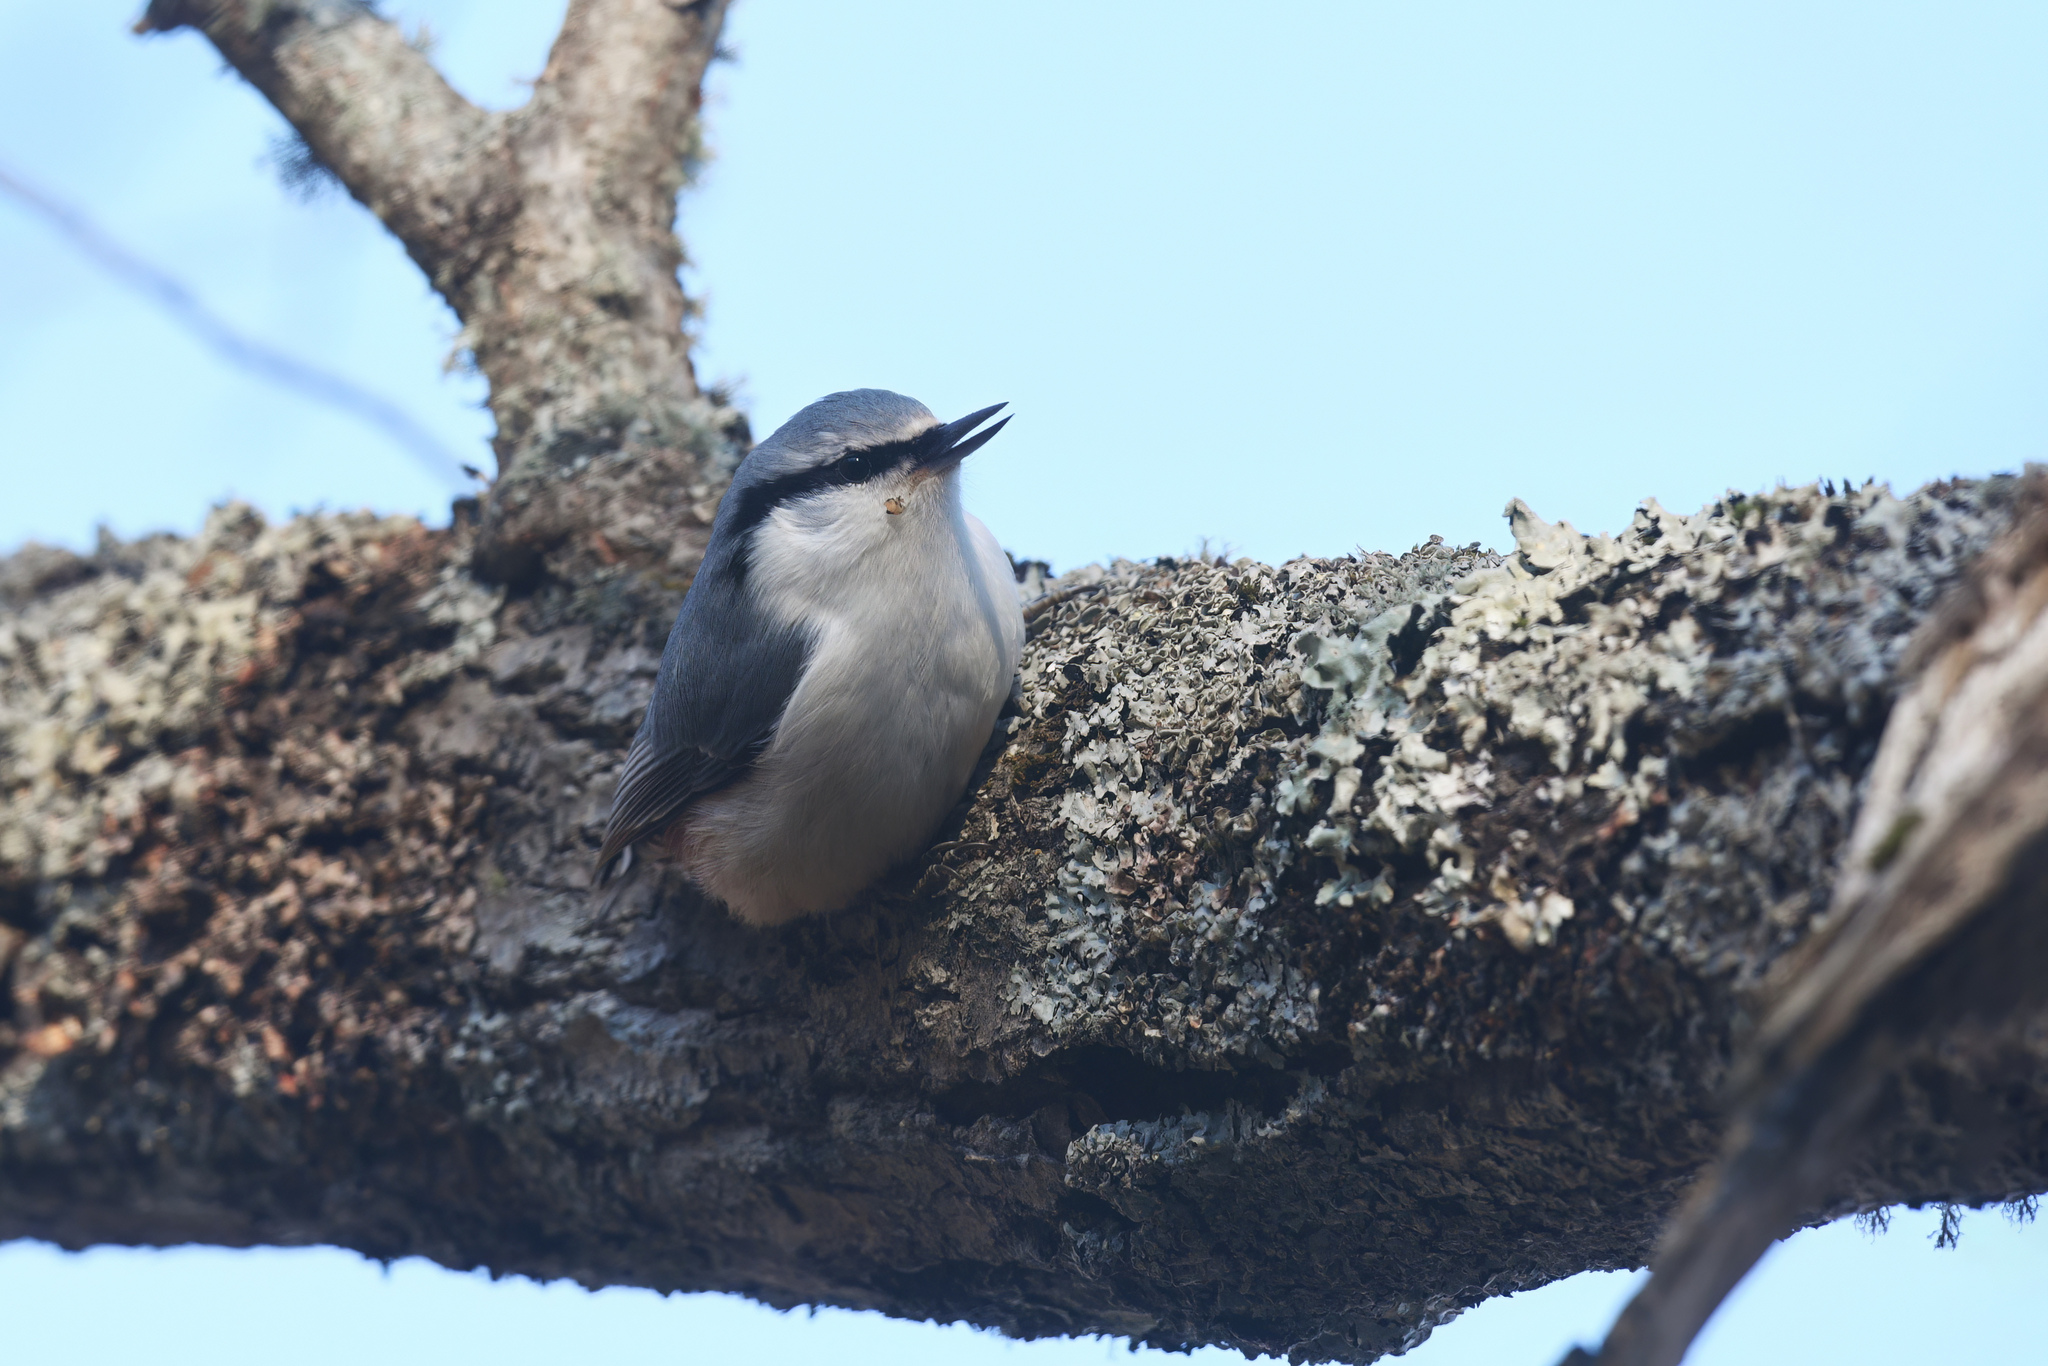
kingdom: Animalia
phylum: Chordata
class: Aves
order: Passeriformes
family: Sittidae
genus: Sitta
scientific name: Sitta europaea
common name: Eurasian nuthatch
